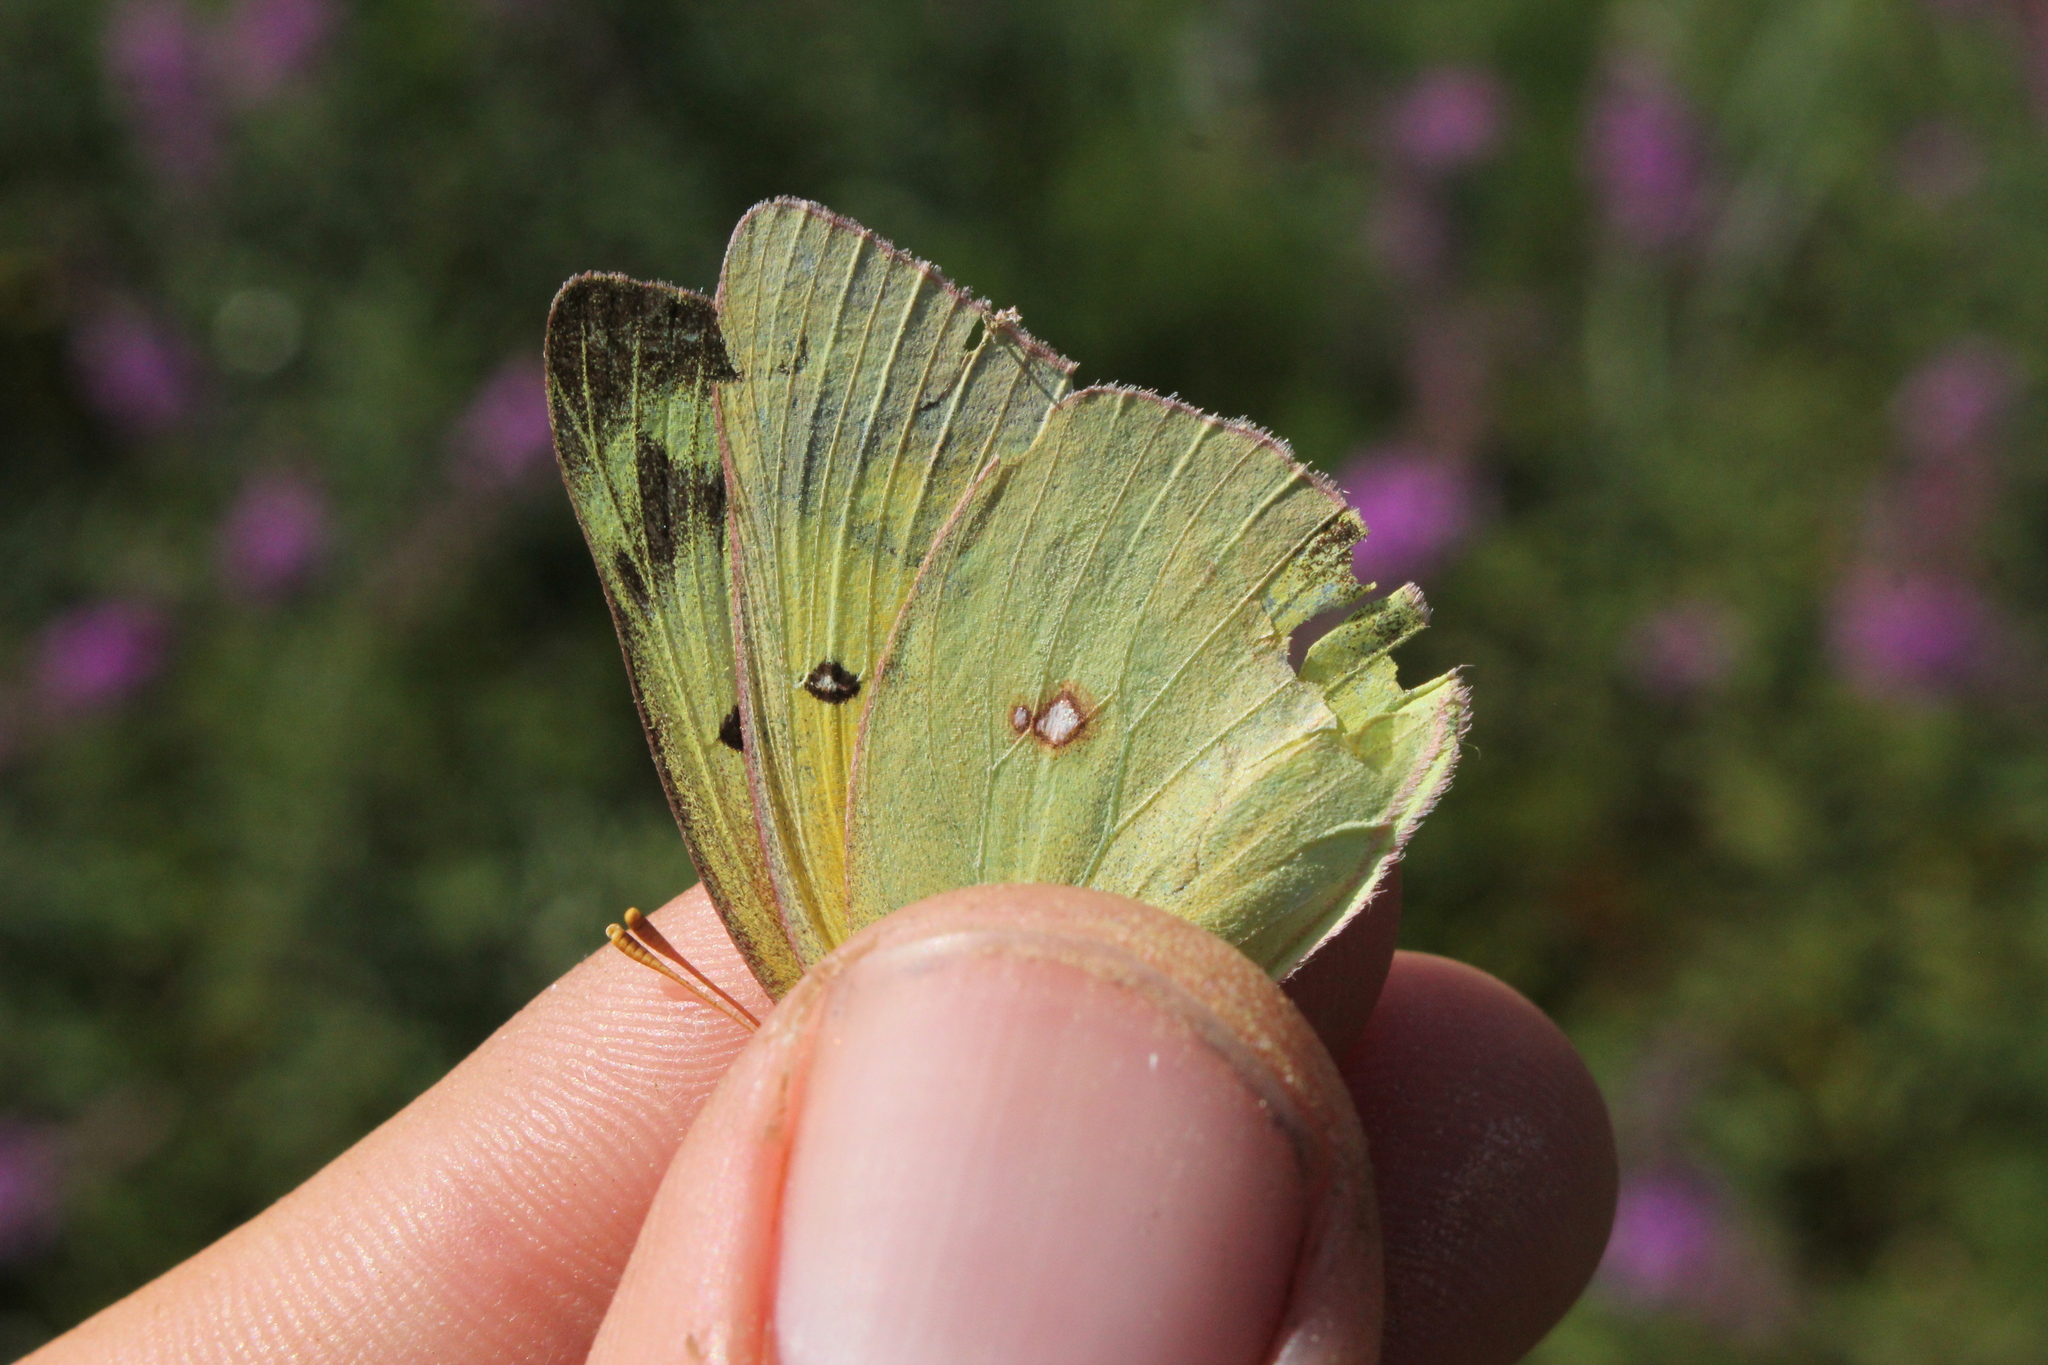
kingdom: Animalia
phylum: Arthropoda
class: Insecta
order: Lepidoptera
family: Pieridae
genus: Colias
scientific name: Colias philodice
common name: Clouded sulphur
